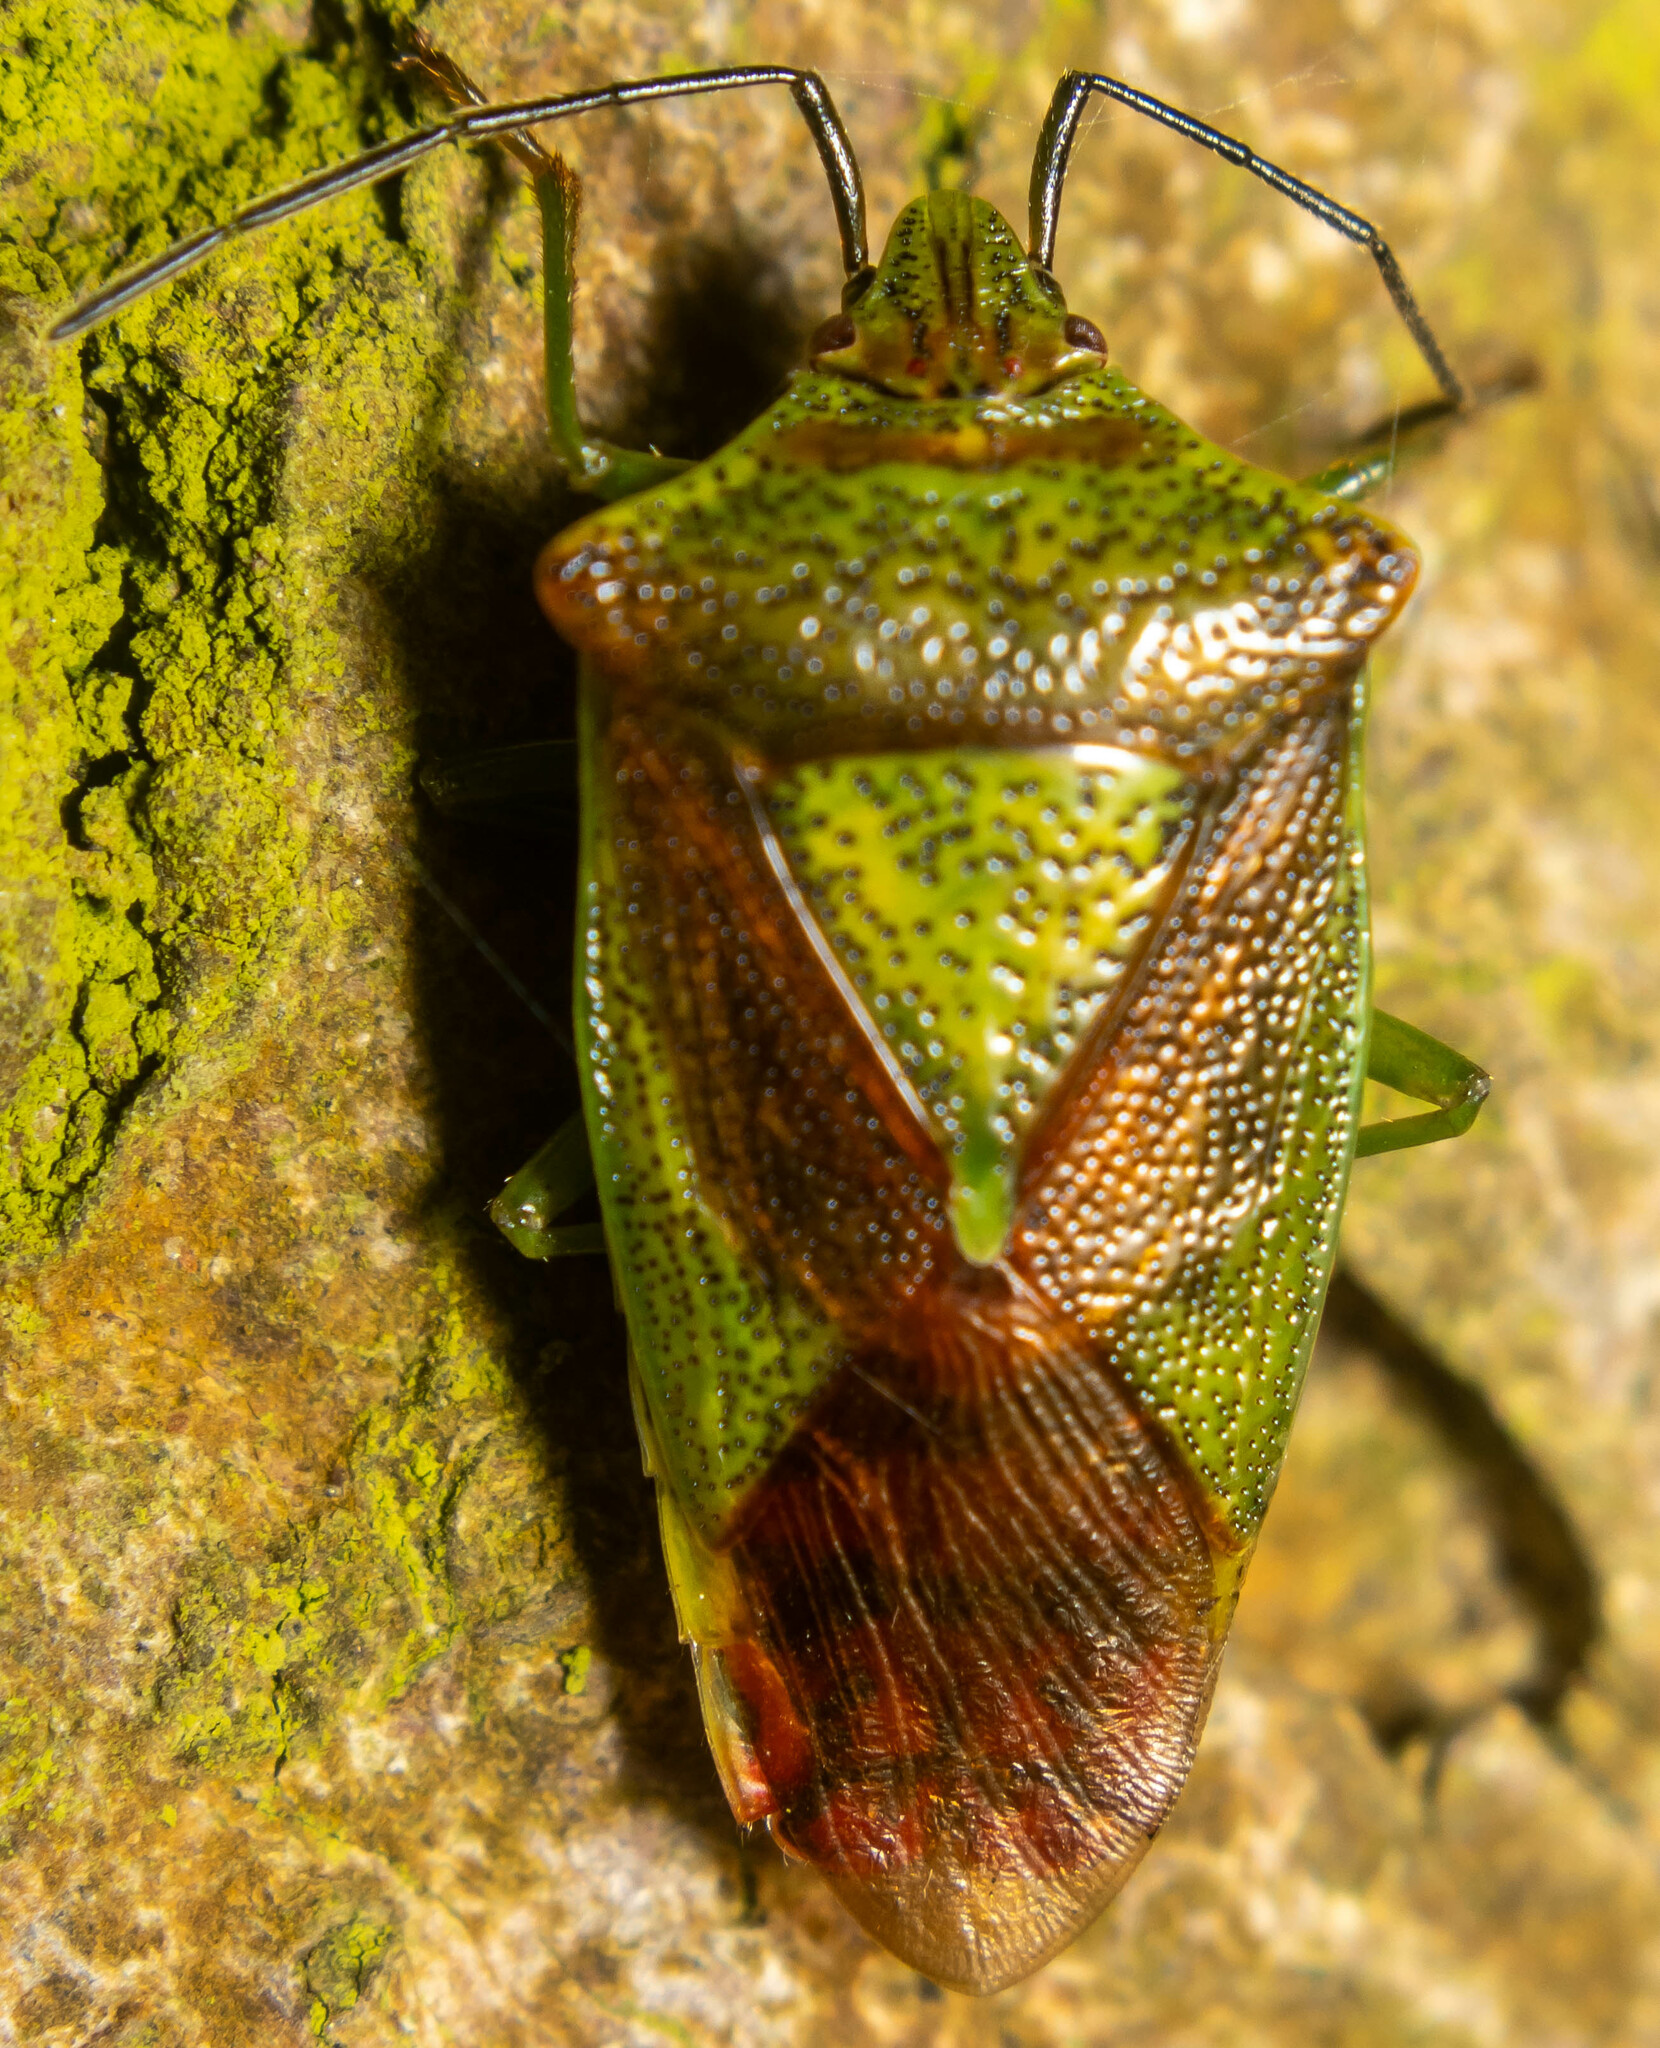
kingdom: Animalia
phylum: Arthropoda
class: Insecta
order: Hemiptera
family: Acanthosomatidae
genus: Acanthosoma
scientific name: Acanthosoma haemorrhoidale
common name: Hawthorn shieldbug
